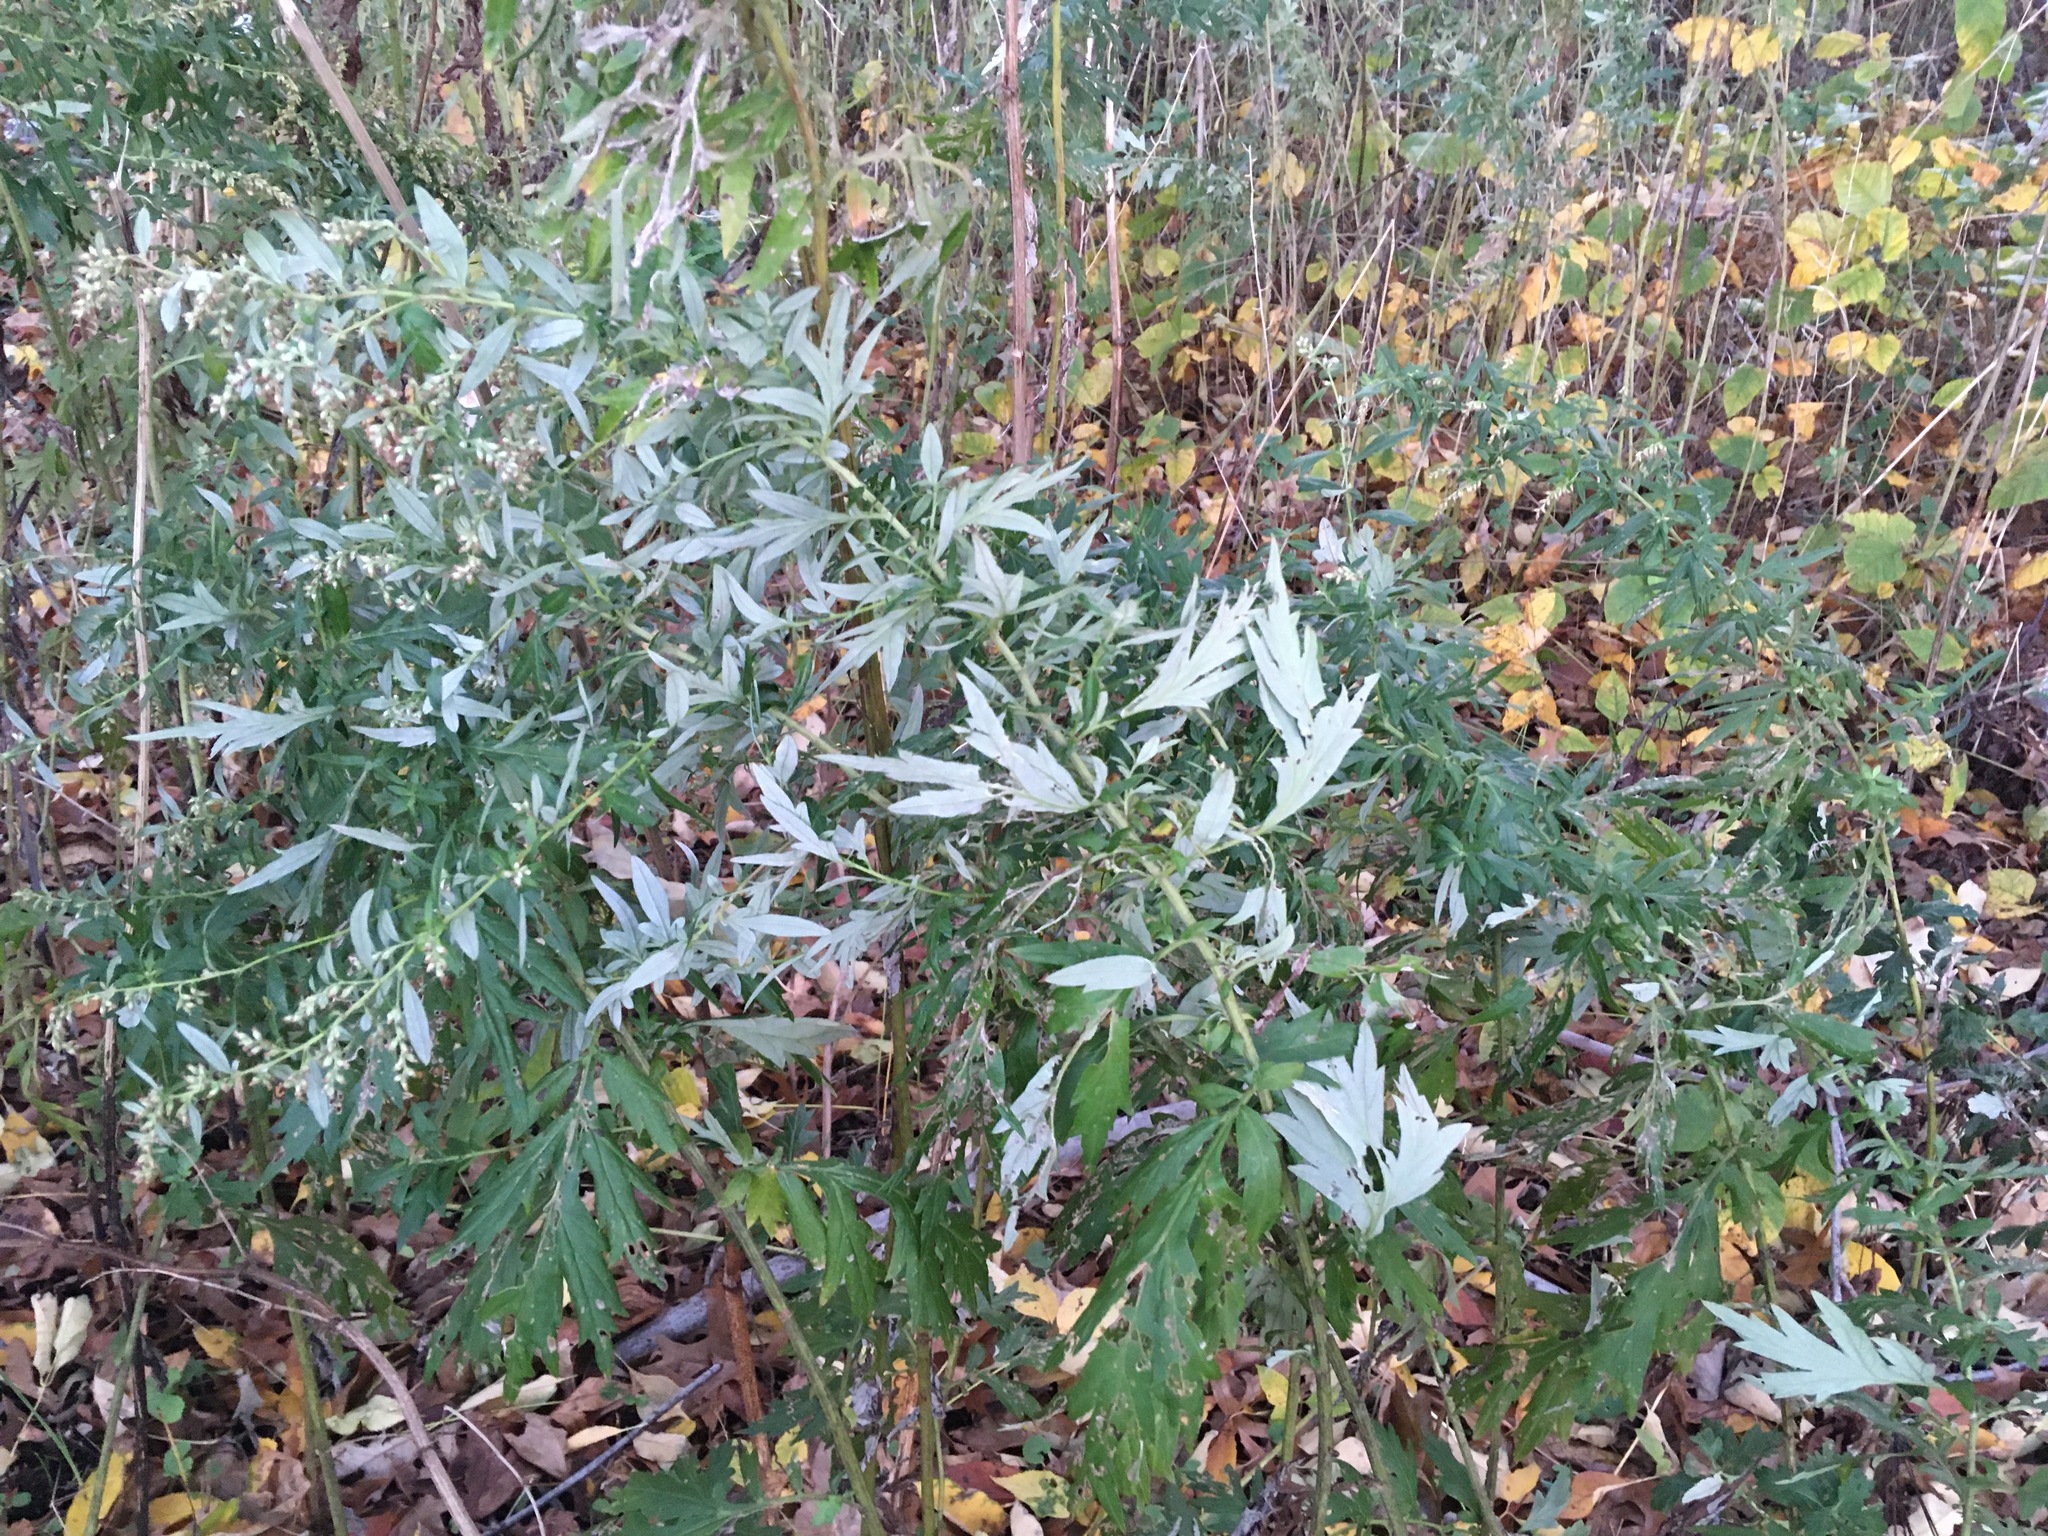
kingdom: Plantae
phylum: Tracheophyta
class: Magnoliopsida
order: Asterales
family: Asteraceae
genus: Artemisia
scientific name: Artemisia vulgaris
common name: Mugwort
